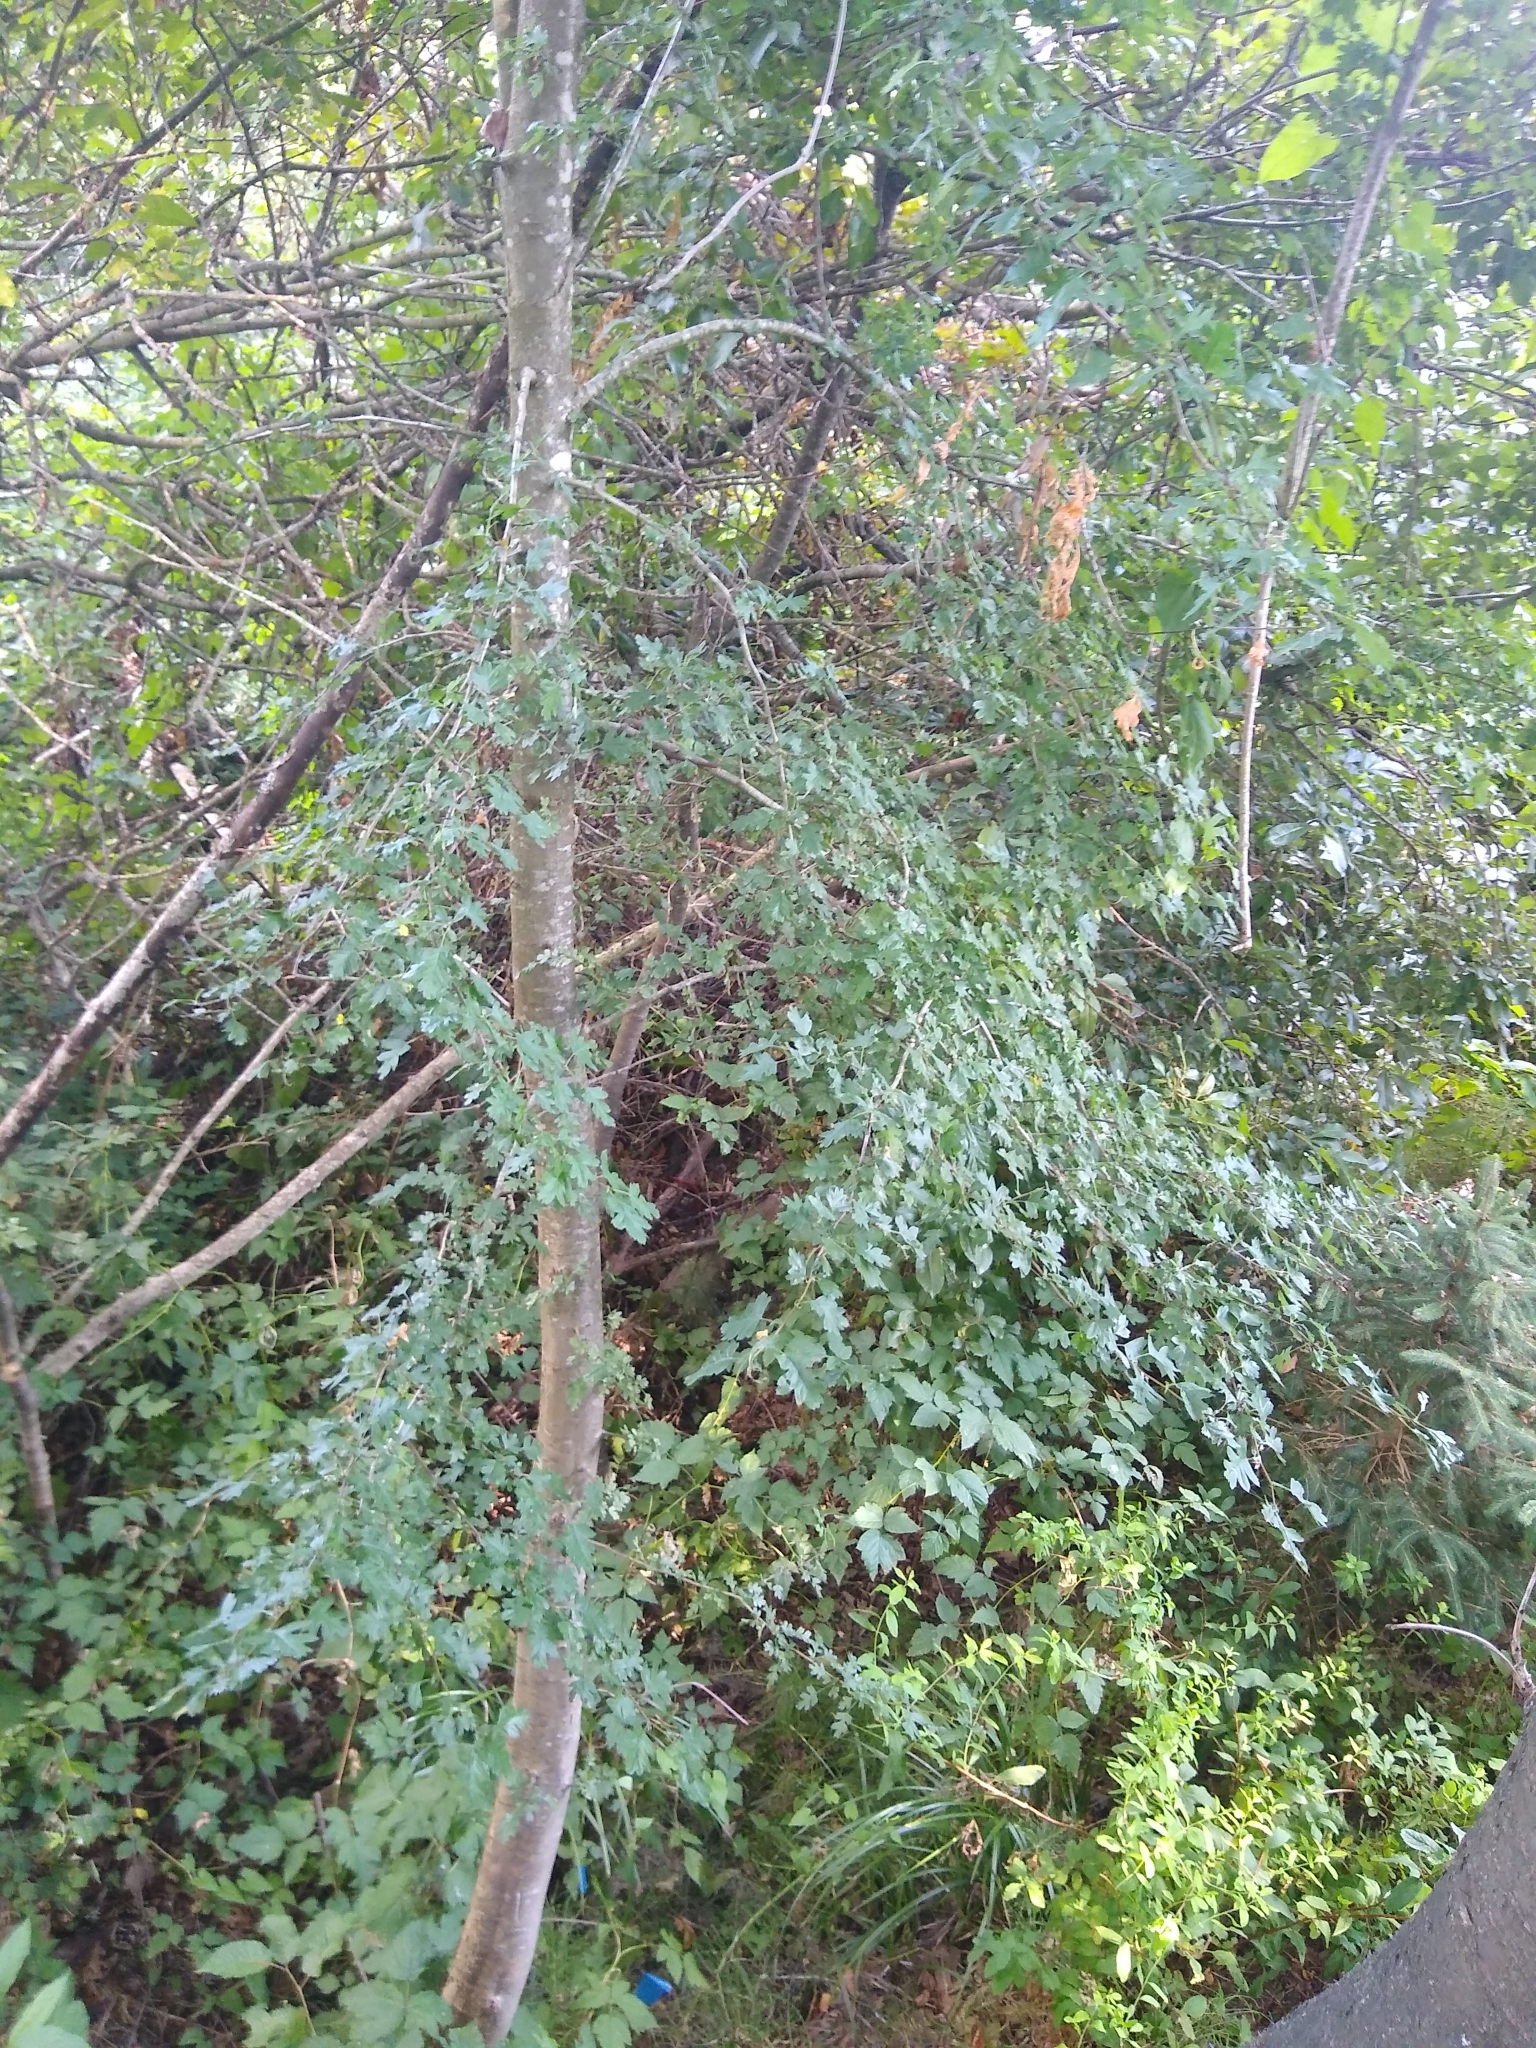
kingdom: Plantae
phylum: Tracheophyta
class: Magnoliopsida
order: Rosales
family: Rosaceae
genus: Crataegus
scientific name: Crataegus monogyna
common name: Hawthorn
